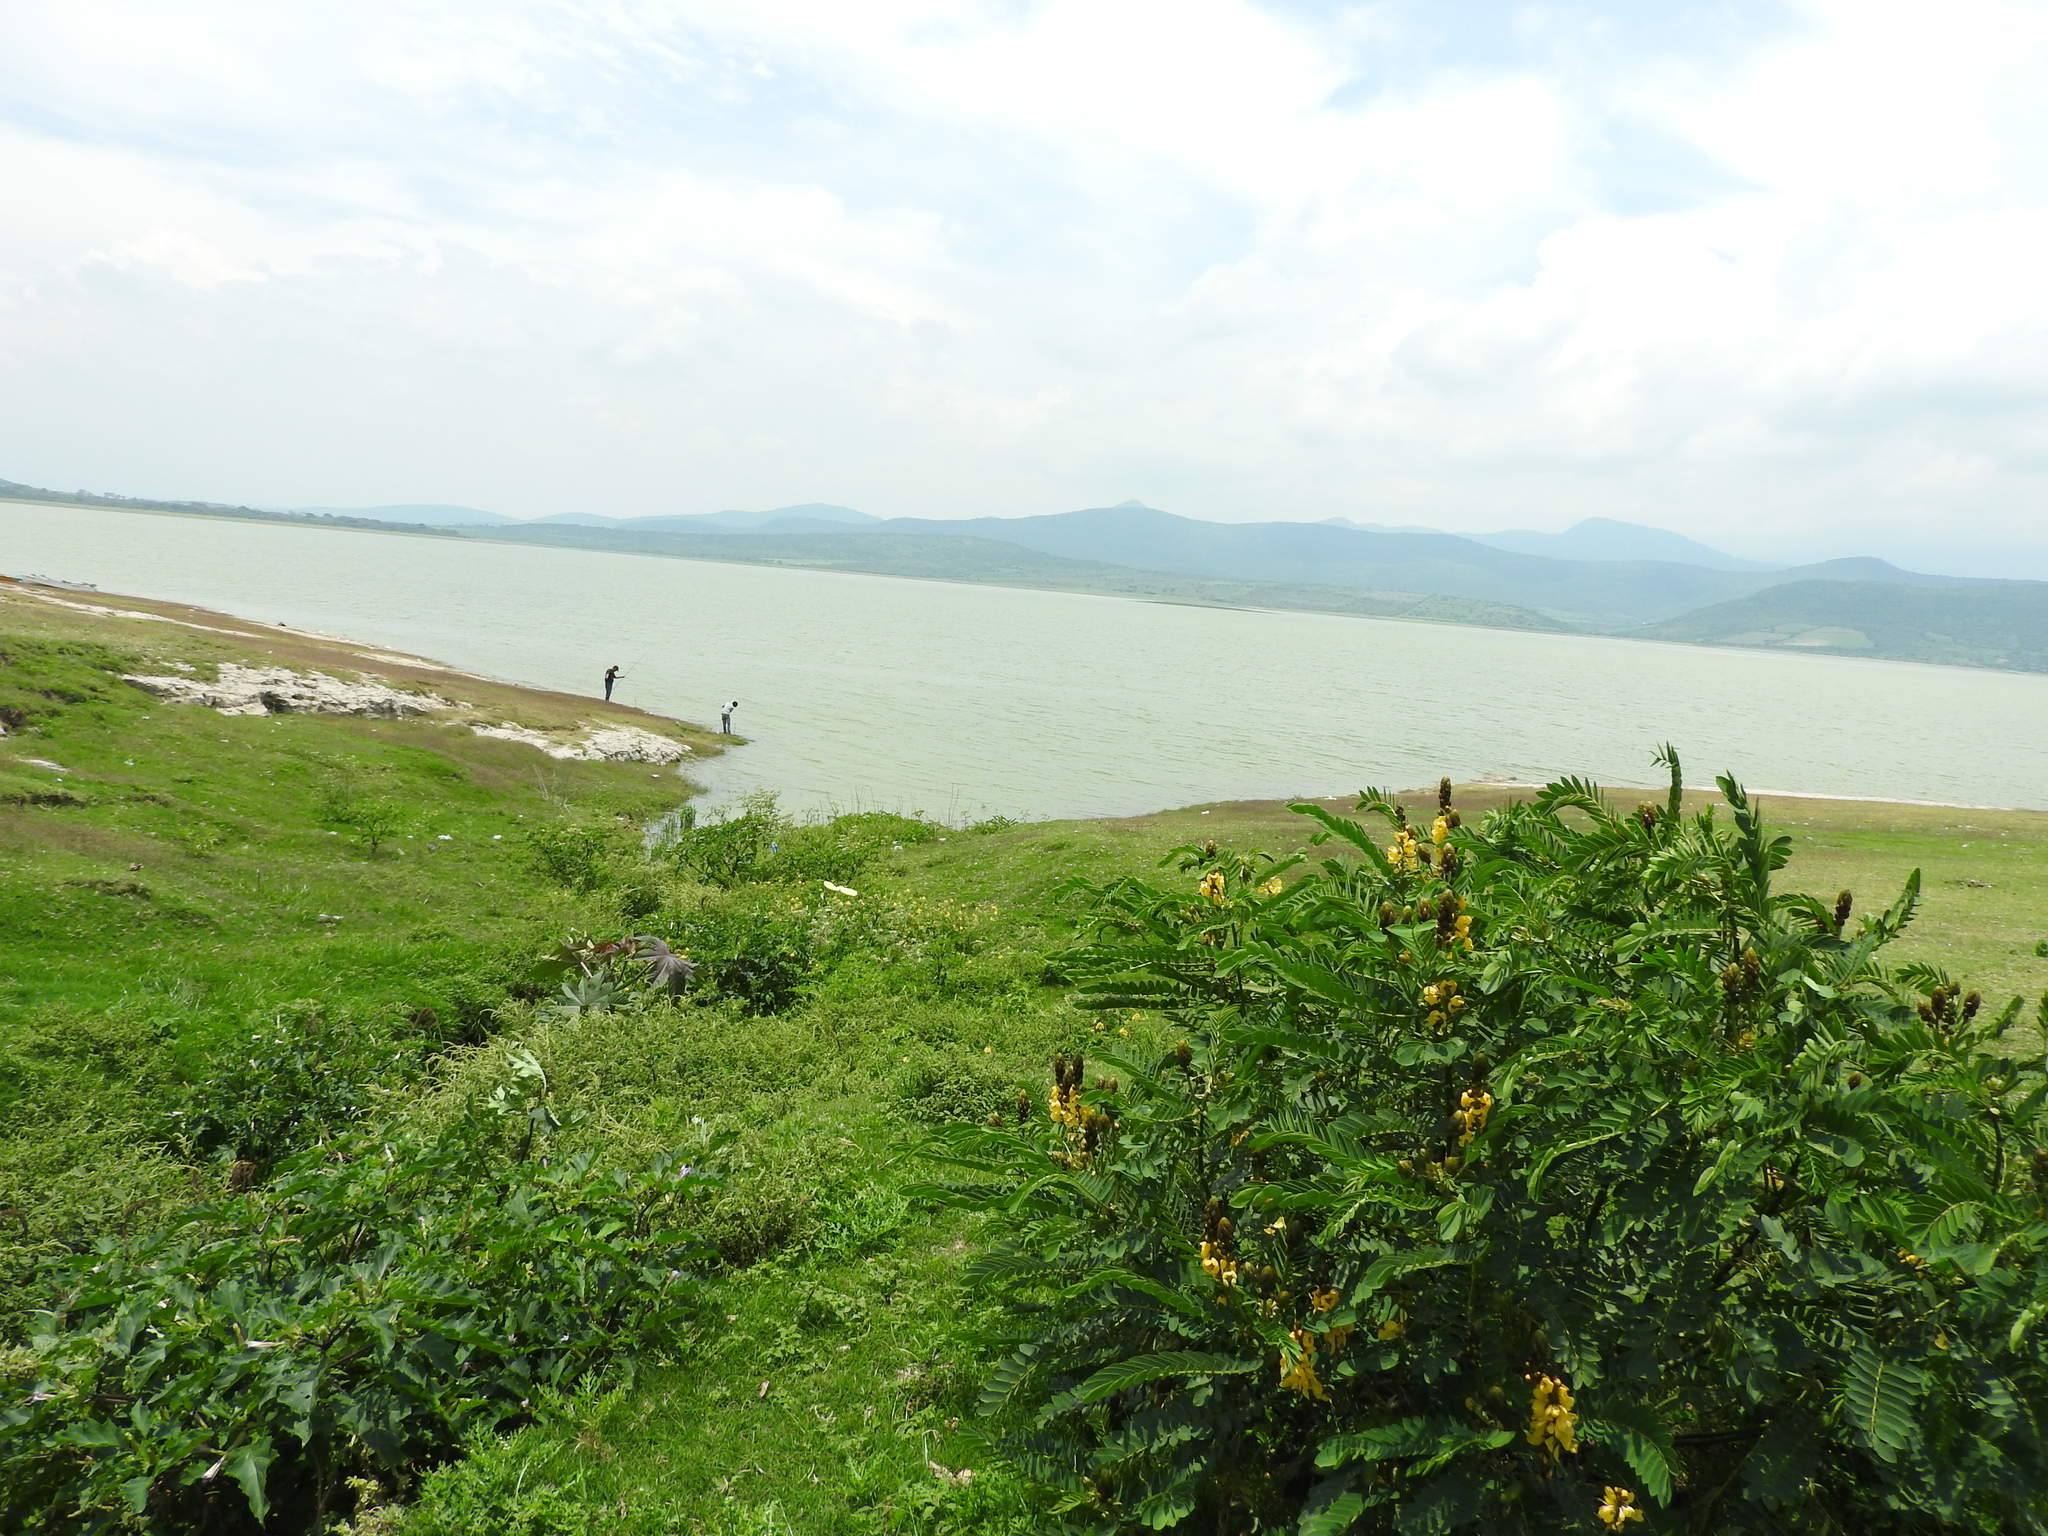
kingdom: Plantae
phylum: Tracheophyta
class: Magnoliopsida
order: Fabales
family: Fabaceae
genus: Senna
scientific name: Senna didymobotrya
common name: African senna
